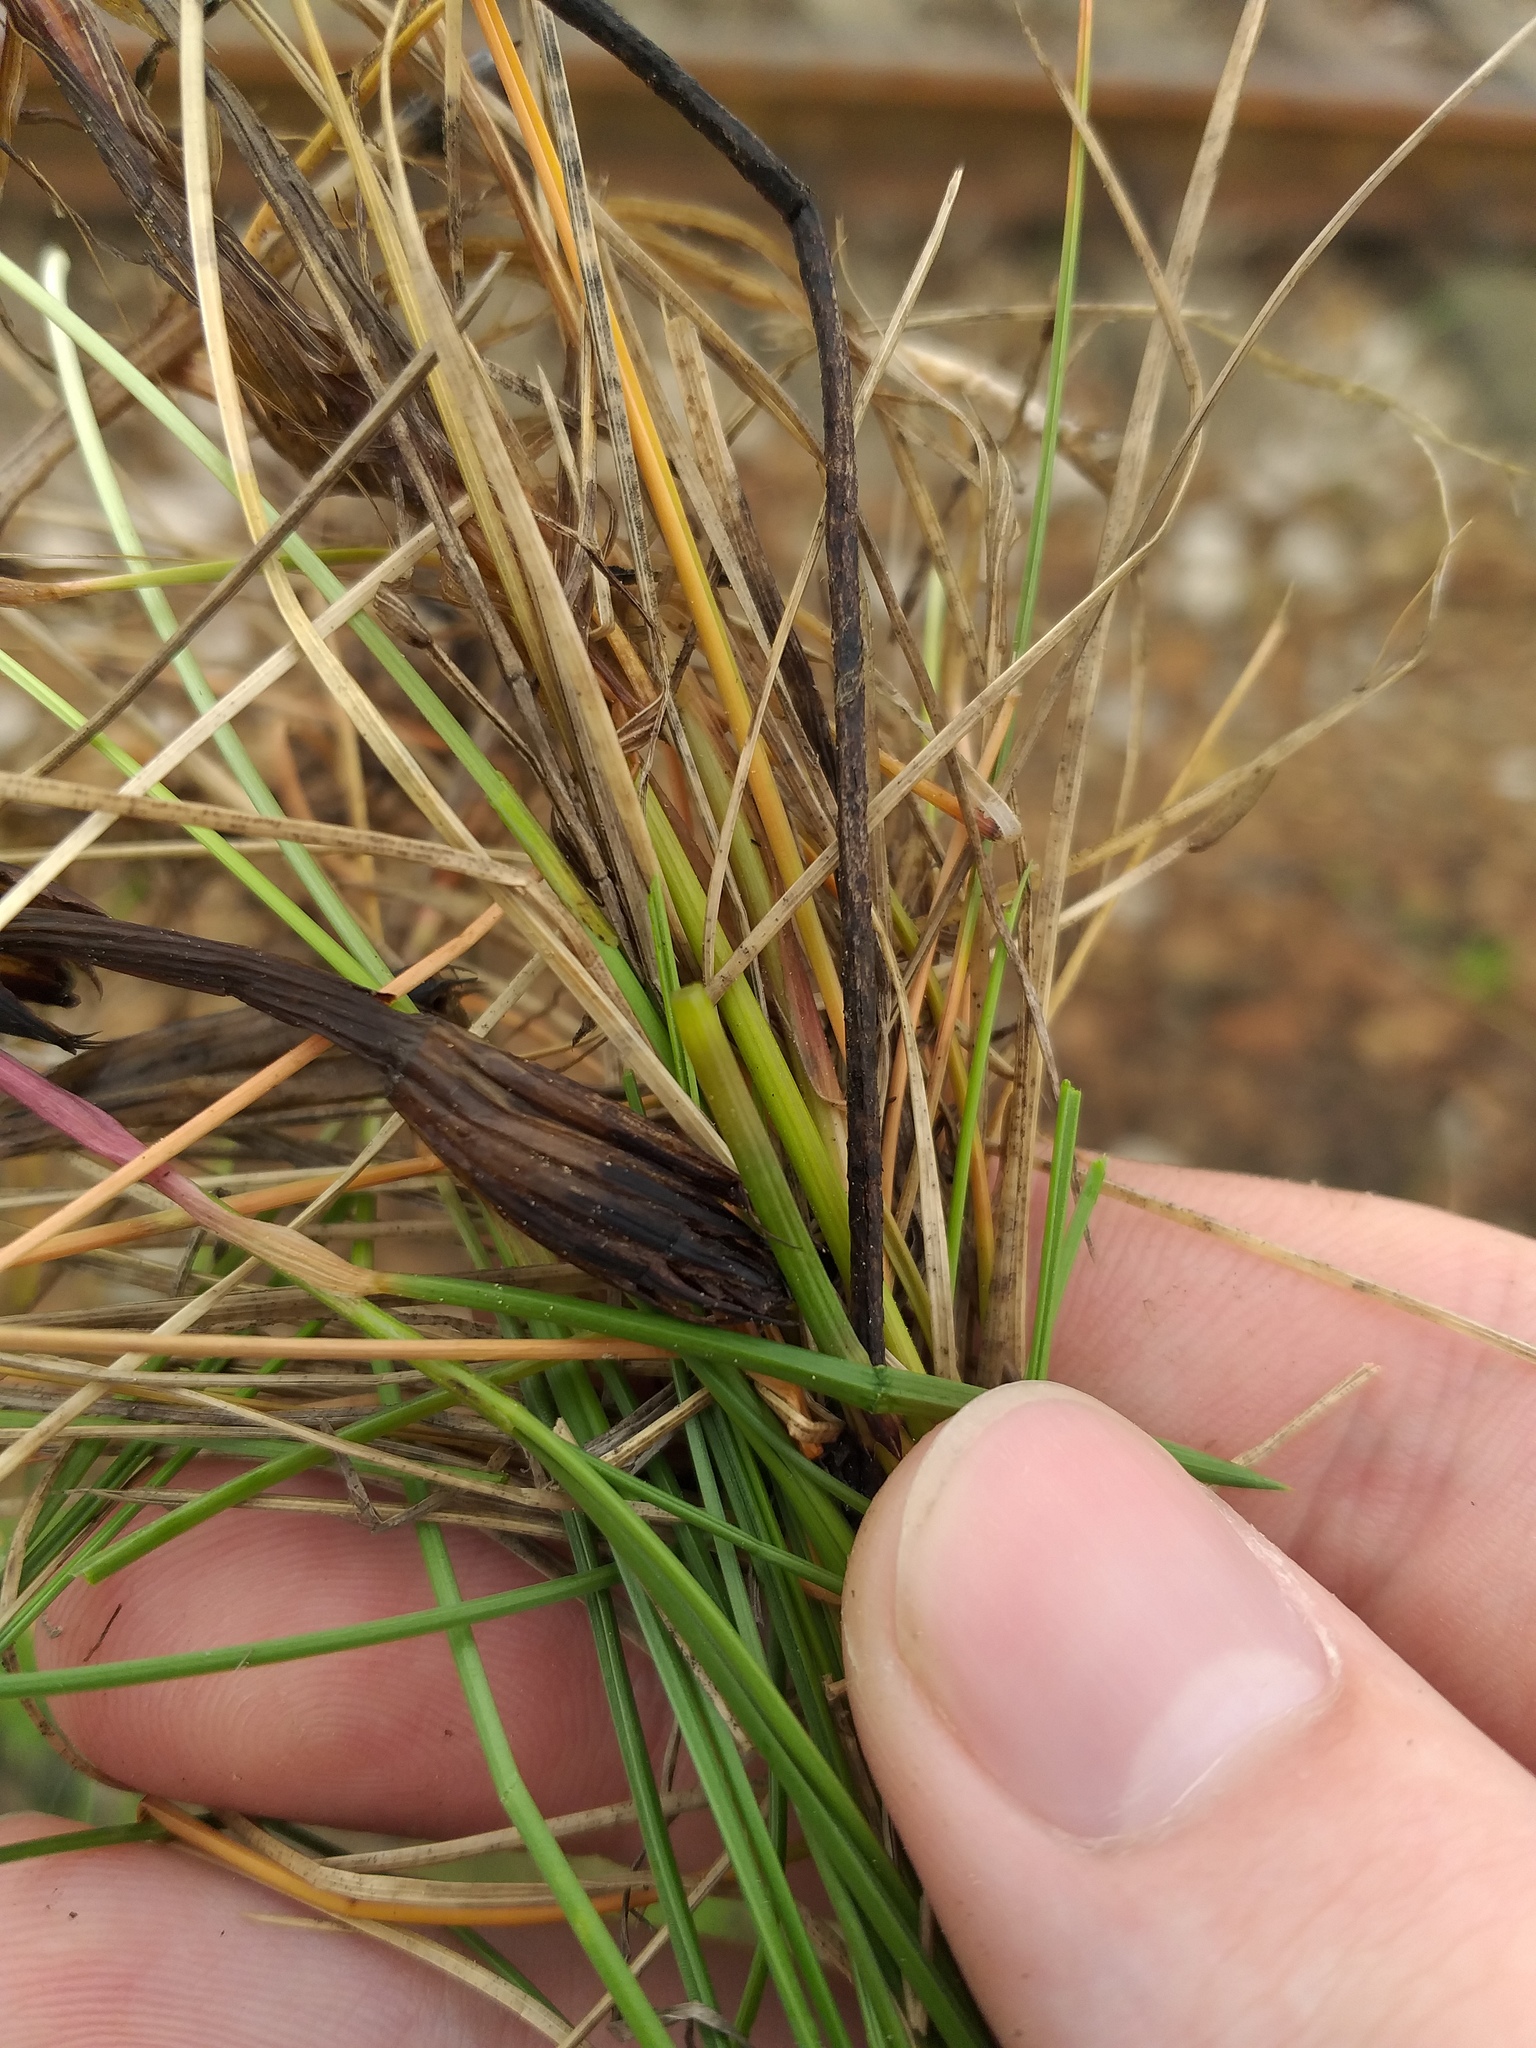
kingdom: Plantae
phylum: Tracheophyta
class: Liliopsida
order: Poales
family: Poaceae
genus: Festuca
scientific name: Festuca rubra
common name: Red fescue
